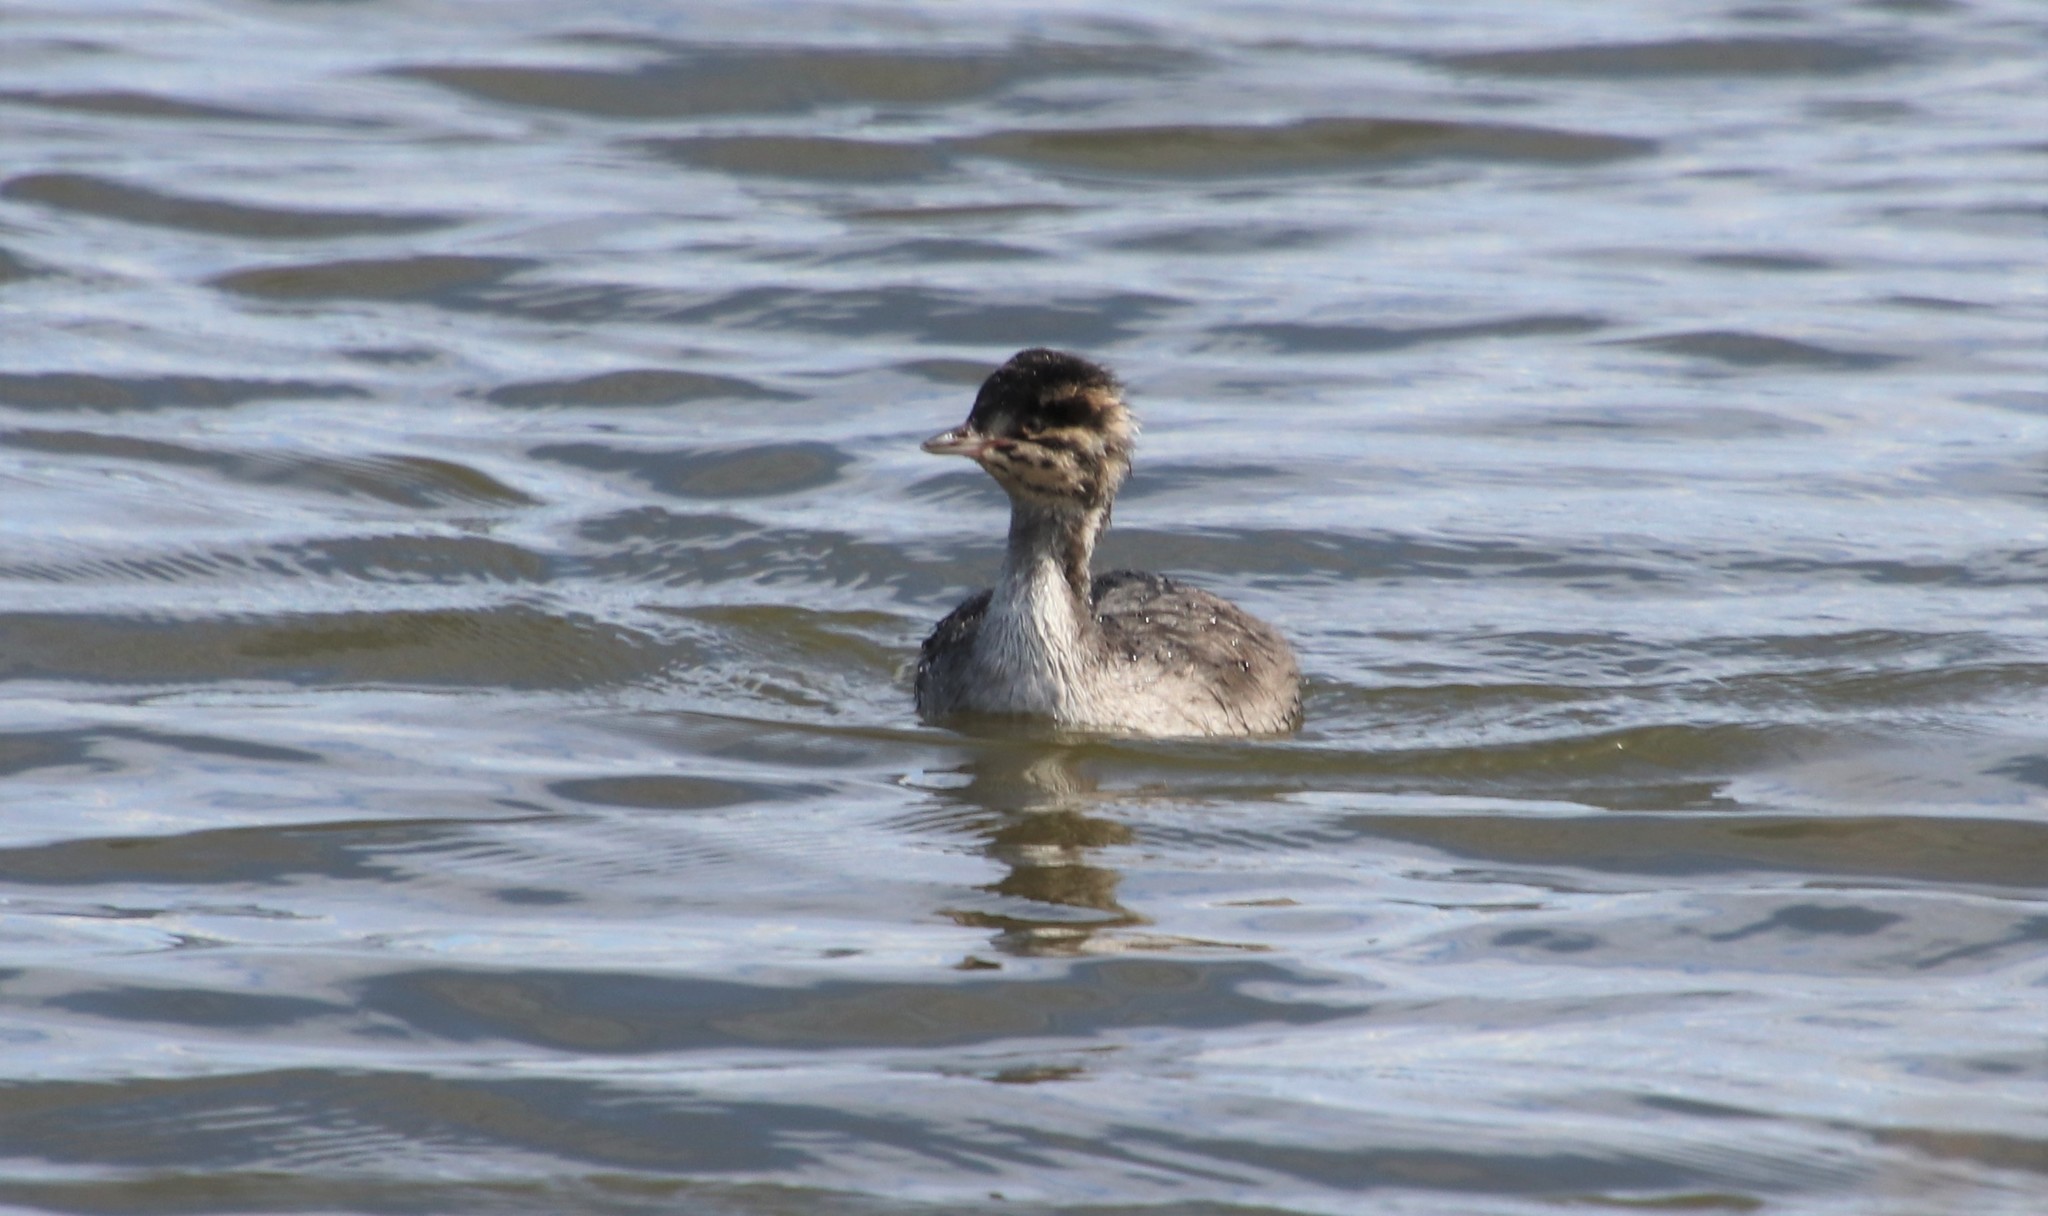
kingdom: Animalia
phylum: Chordata
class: Aves
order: Podicipediformes
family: Podicipedidae
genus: Podiceps
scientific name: Podiceps auritus
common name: Horned grebe
